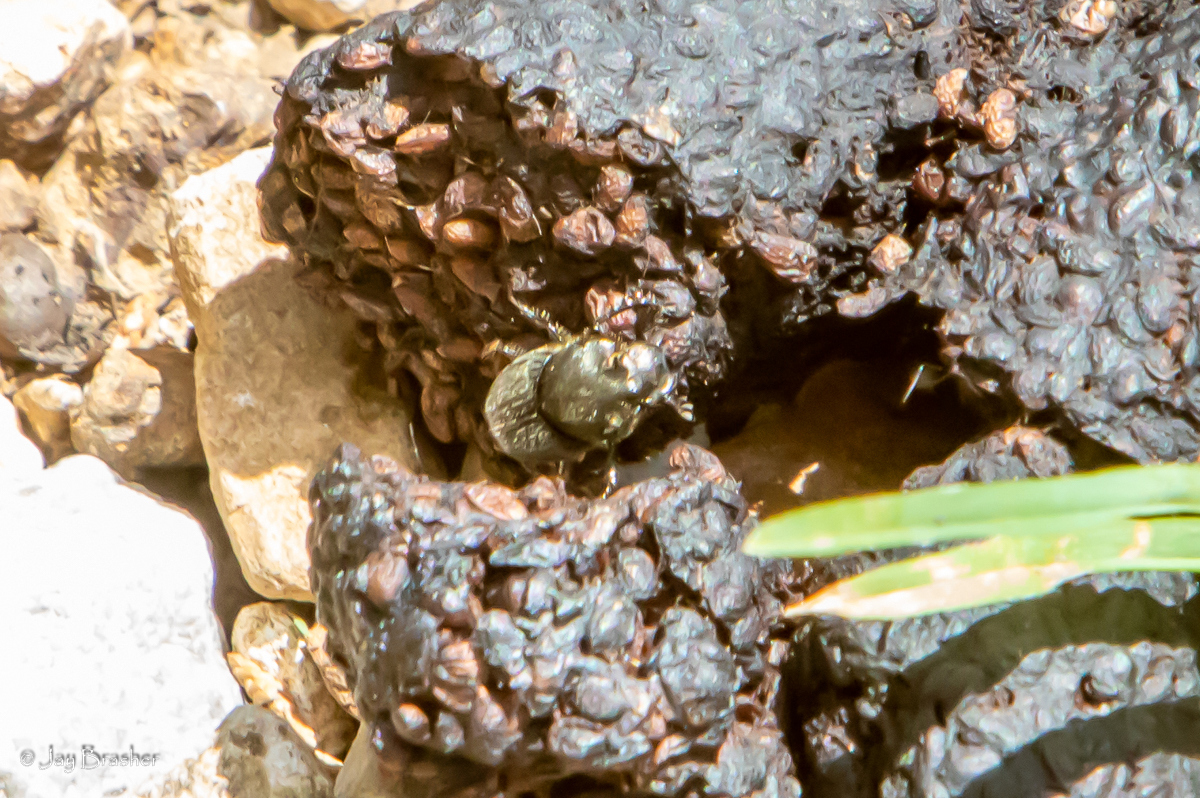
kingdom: Animalia
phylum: Arthropoda
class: Insecta
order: Coleoptera
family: Scarabaeidae
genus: Onthophagus
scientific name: Onthophagus hecate
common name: Scooped scarab
